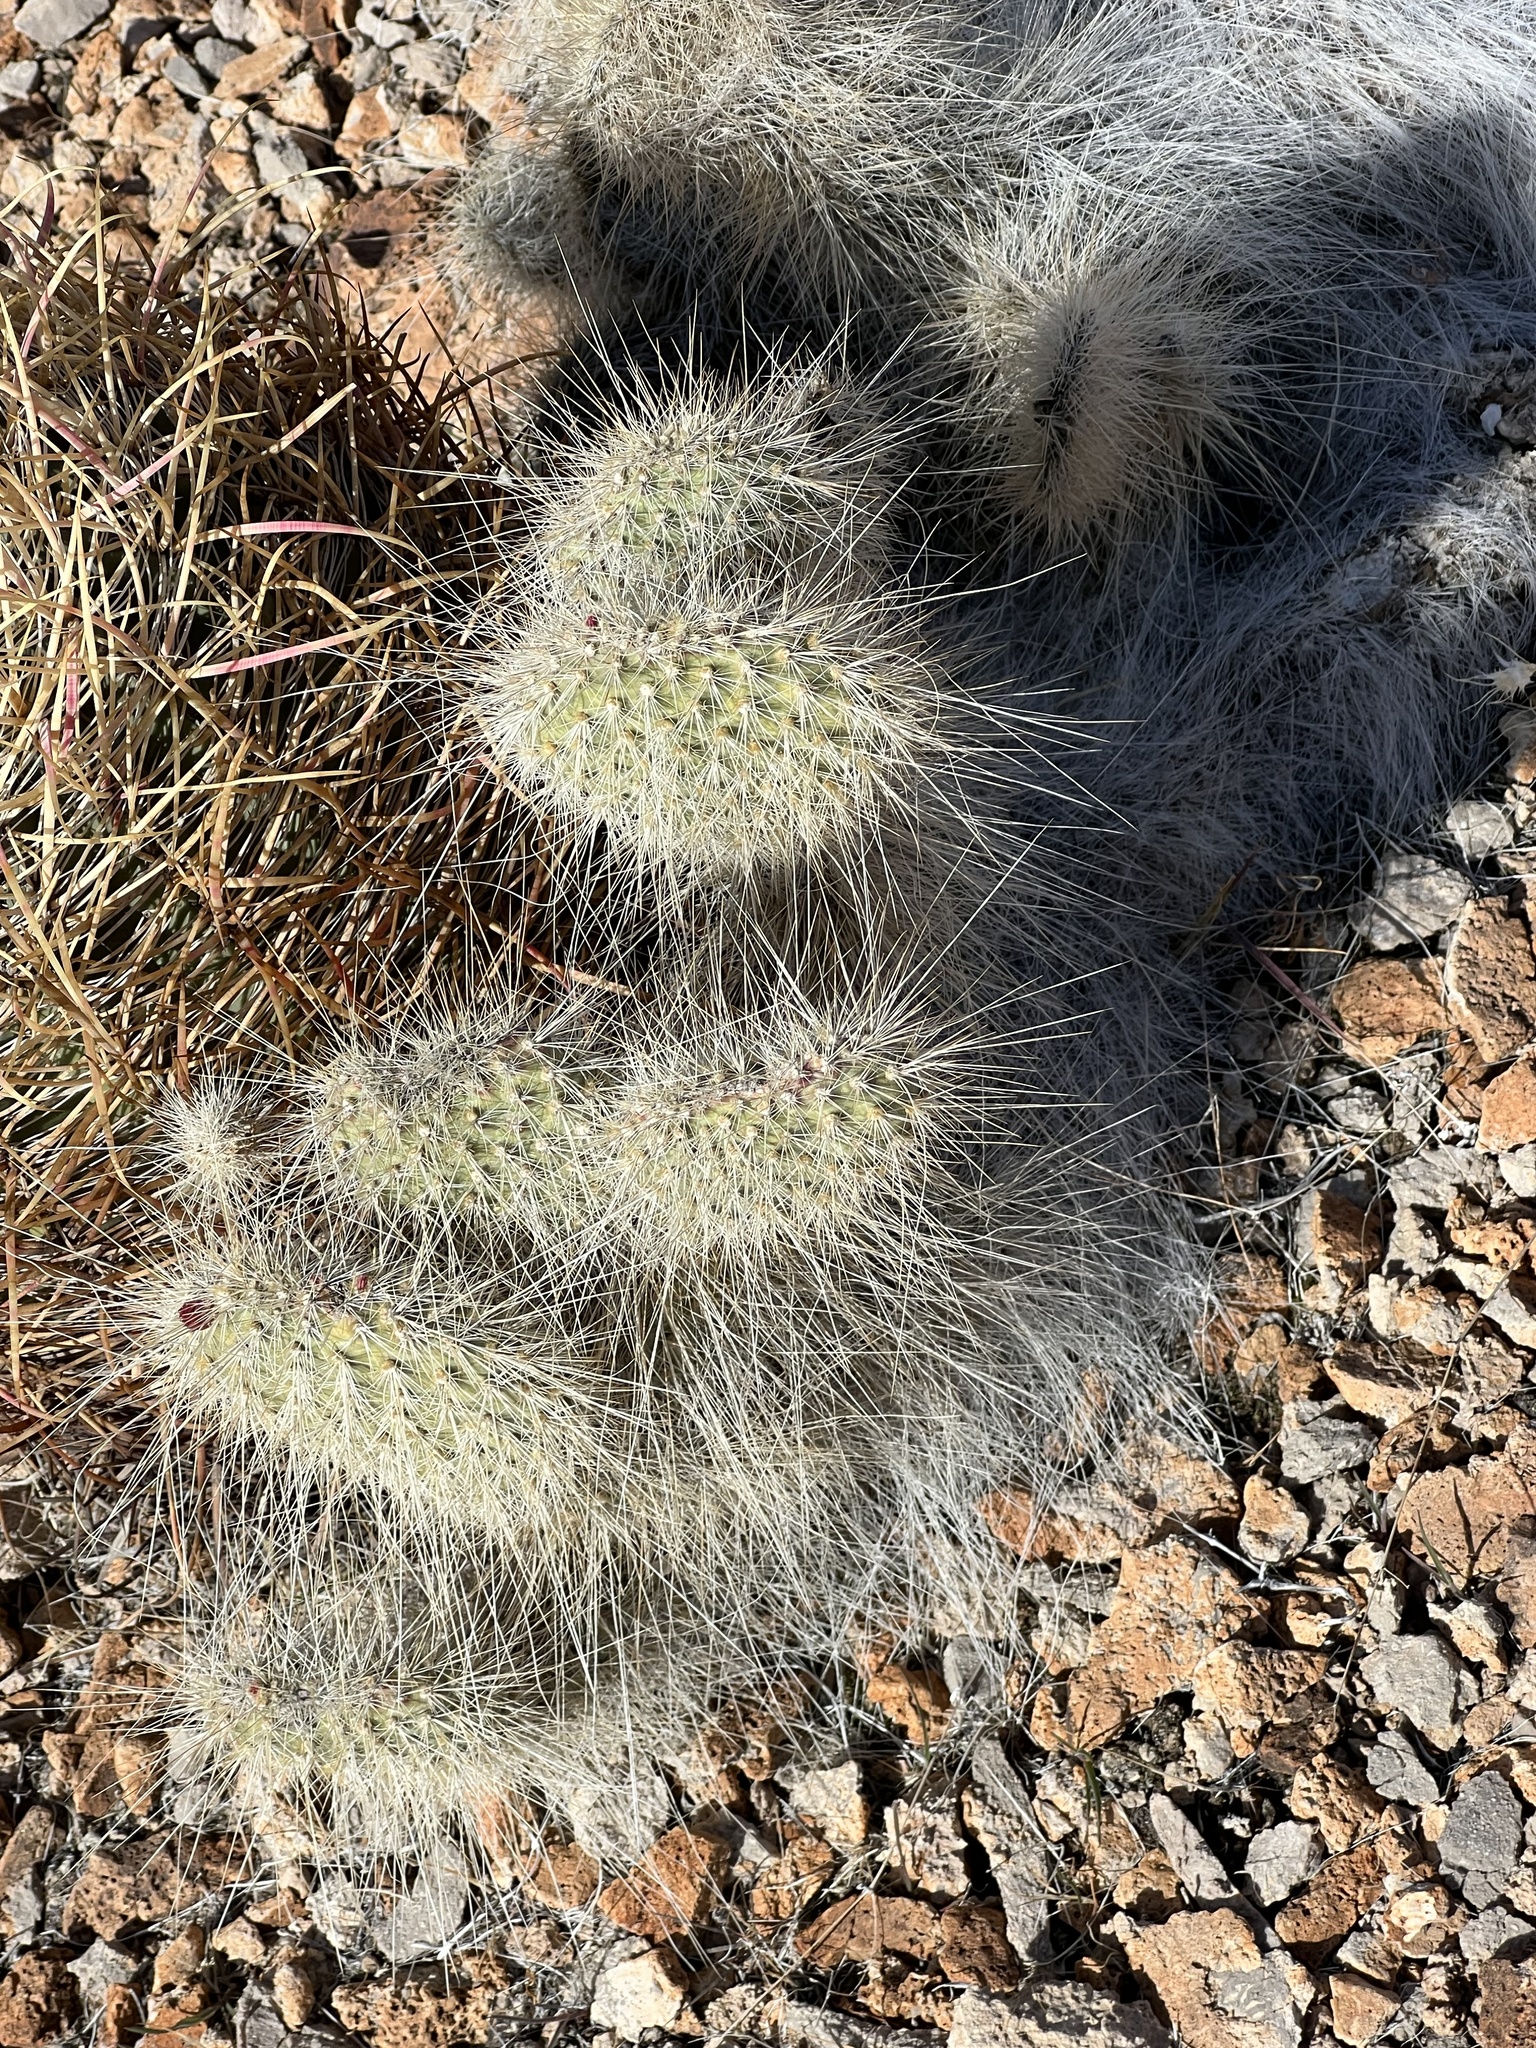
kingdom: Plantae
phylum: Tracheophyta
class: Magnoliopsida
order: Caryophyllales
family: Cactaceae
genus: Opuntia
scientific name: Opuntia polyacantha
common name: Plains prickly-pear
